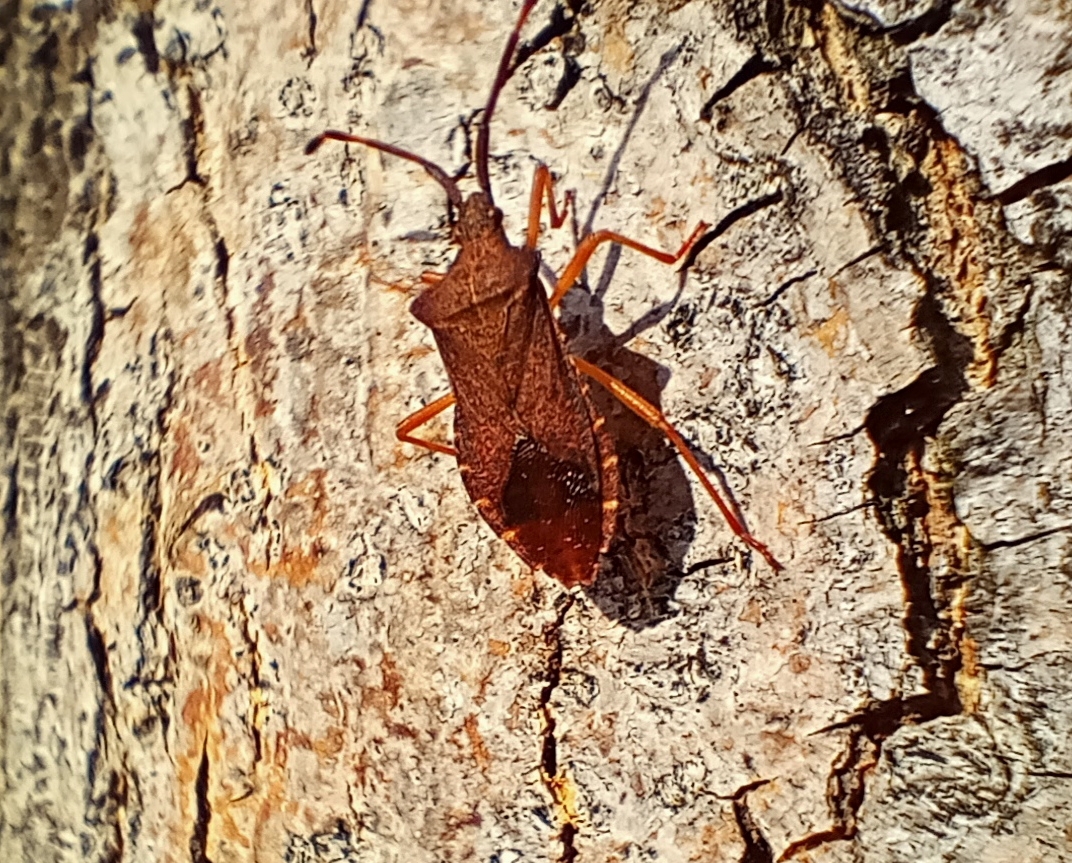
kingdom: Animalia
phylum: Arthropoda
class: Insecta
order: Hemiptera
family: Coreidae
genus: Gonocerus
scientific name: Gonocerus acuteangulatus
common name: Box bug
